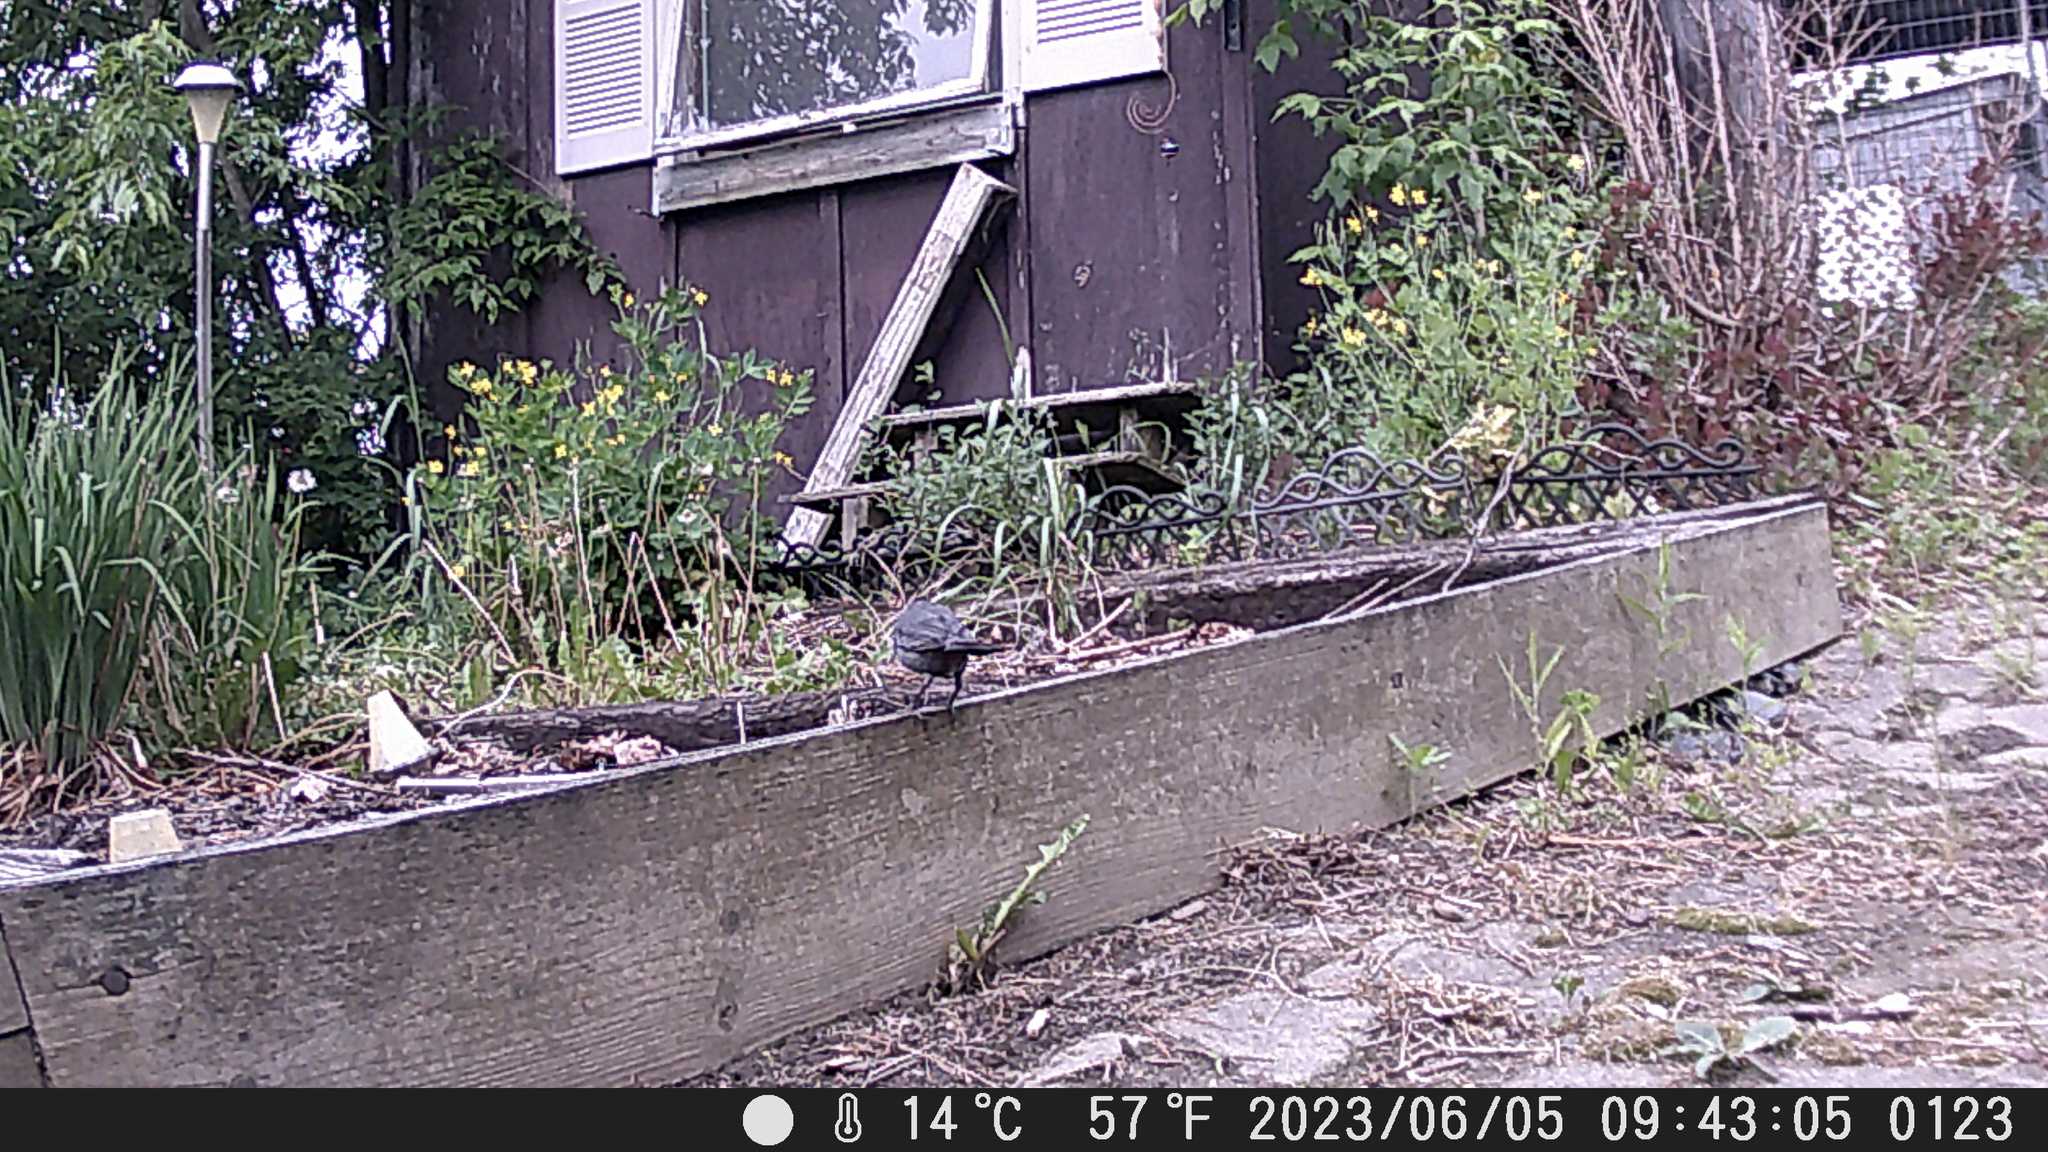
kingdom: Animalia
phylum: Chordata
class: Aves
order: Passeriformes
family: Mimidae
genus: Dumetella
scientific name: Dumetella carolinensis
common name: Gray catbird
